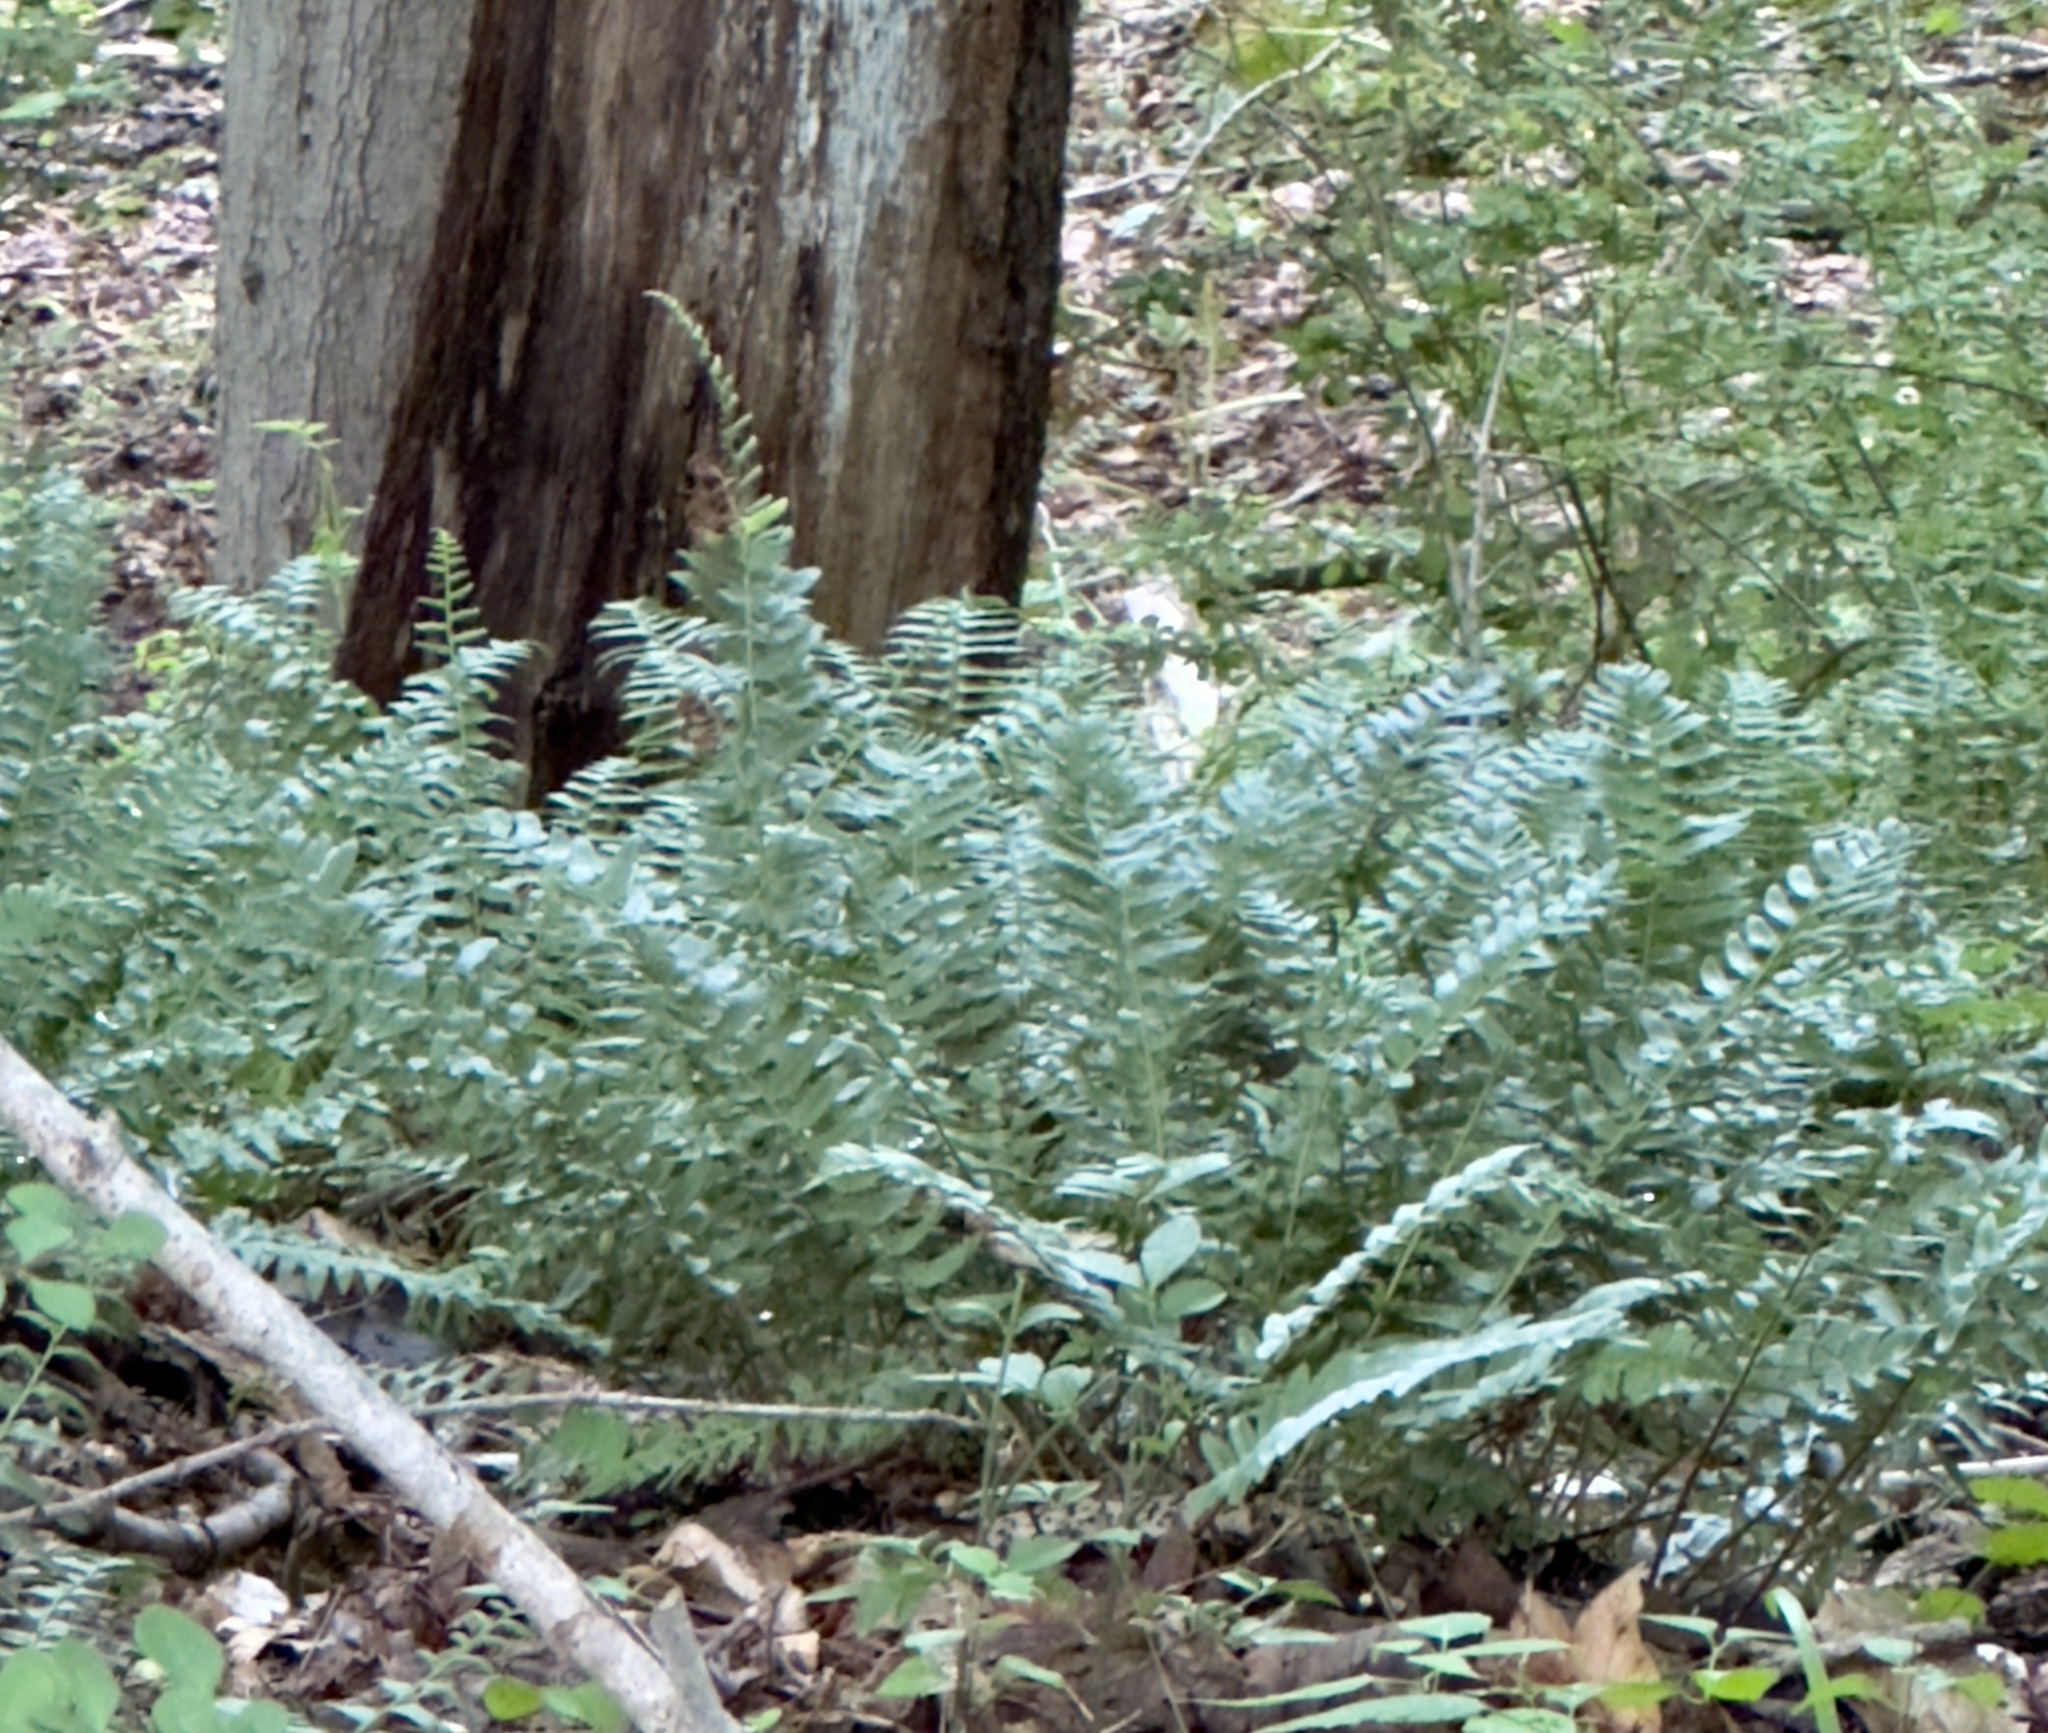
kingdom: Plantae
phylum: Tracheophyta
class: Polypodiopsida
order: Polypodiales
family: Dryopteridaceae
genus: Polystichum
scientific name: Polystichum acrostichoides
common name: Christmas fern
